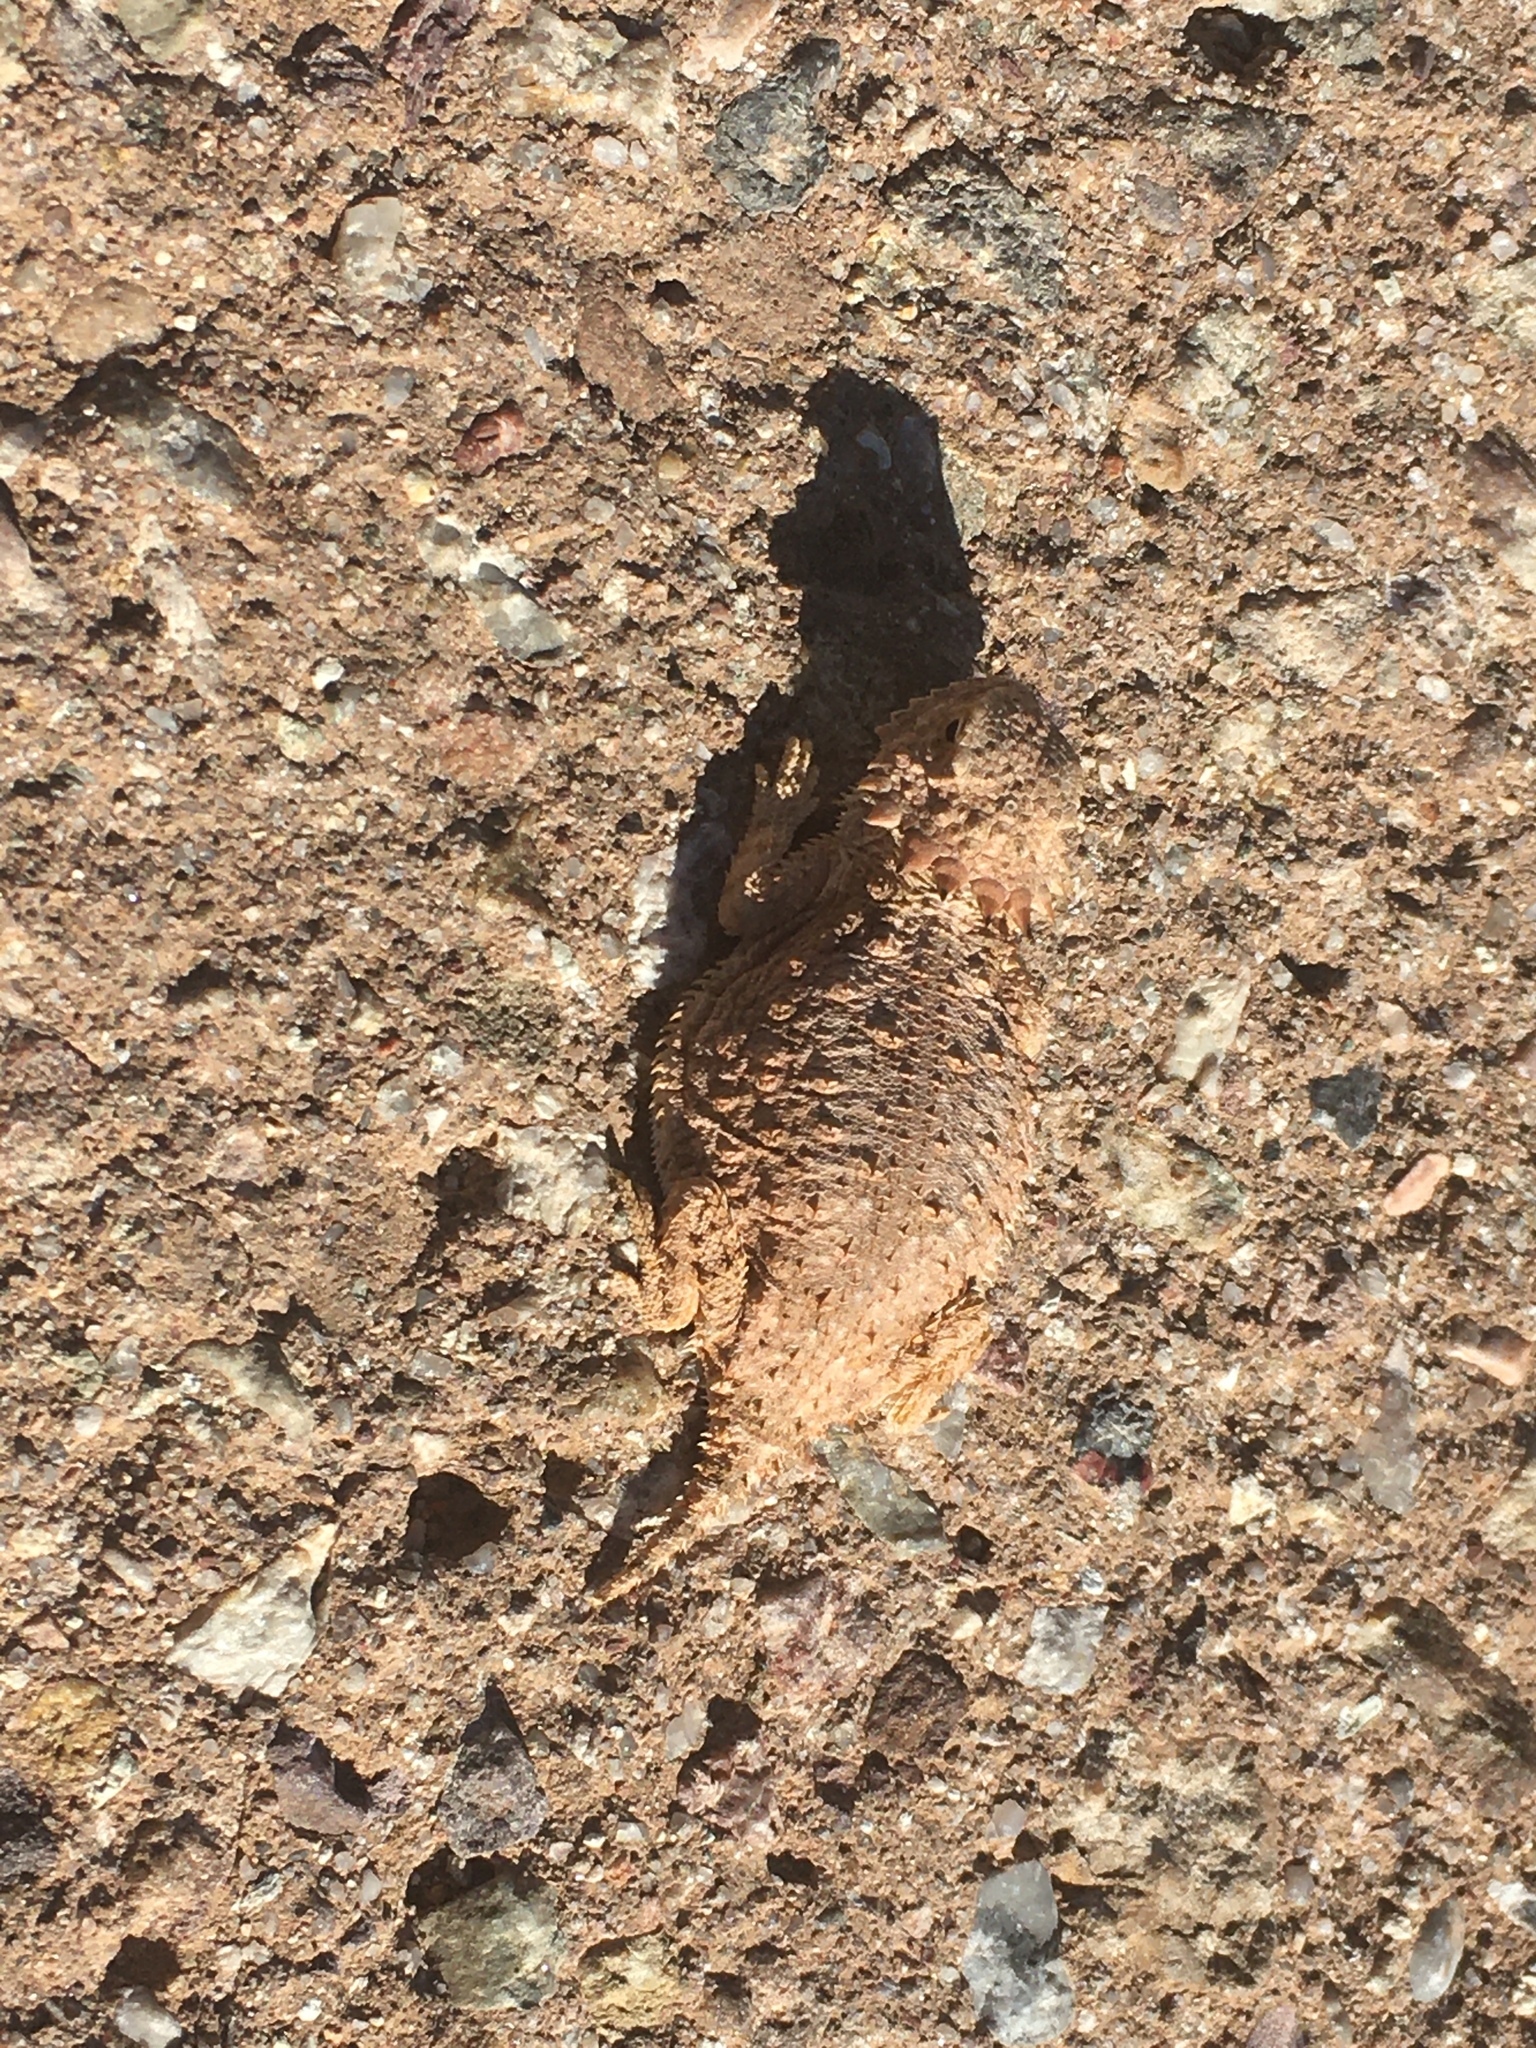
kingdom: Animalia
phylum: Chordata
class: Squamata
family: Phrynosomatidae
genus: Phrynosoma
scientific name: Phrynosoma solare
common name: Regal horned lizard
